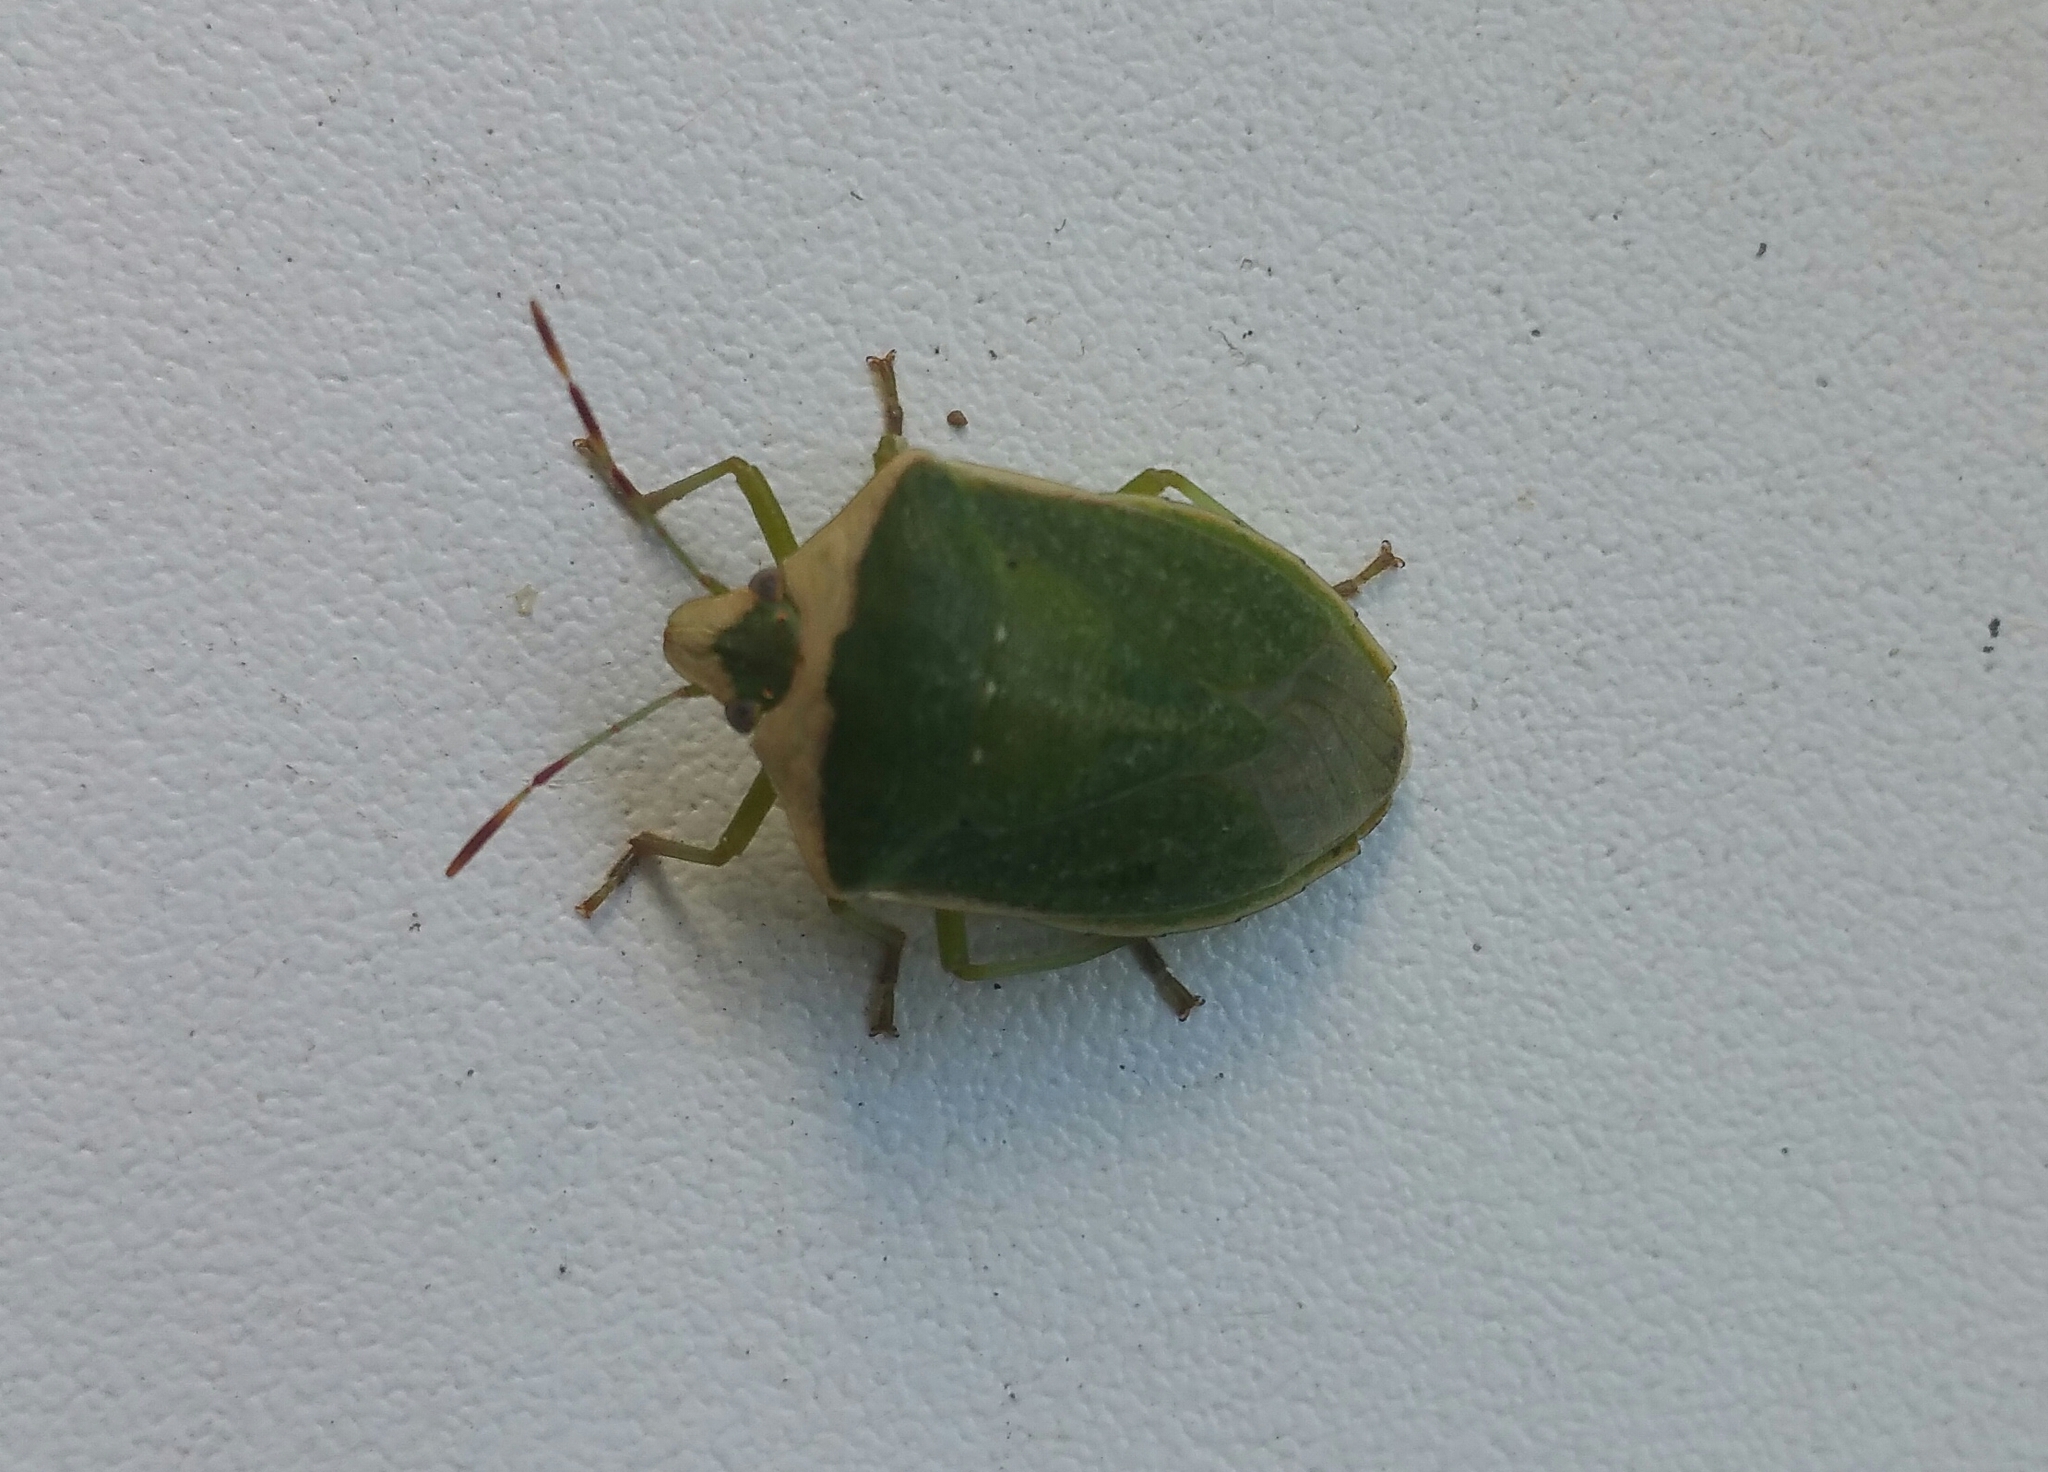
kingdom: Animalia
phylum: Arthropoda
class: Insecta
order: Hemiptera
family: Pentatomidae
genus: Nezara
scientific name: Nezara viridula
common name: Southern green stink bug
